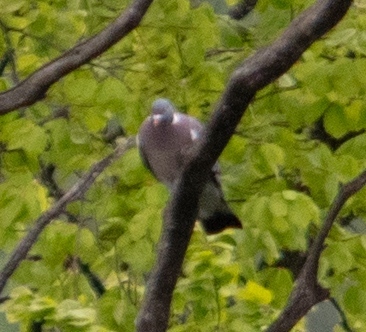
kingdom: Animalia
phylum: Chordata
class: Aves
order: Columbiformes
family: Columbidae
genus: Columba
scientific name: Columba palumbus
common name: Common wood pigeon
